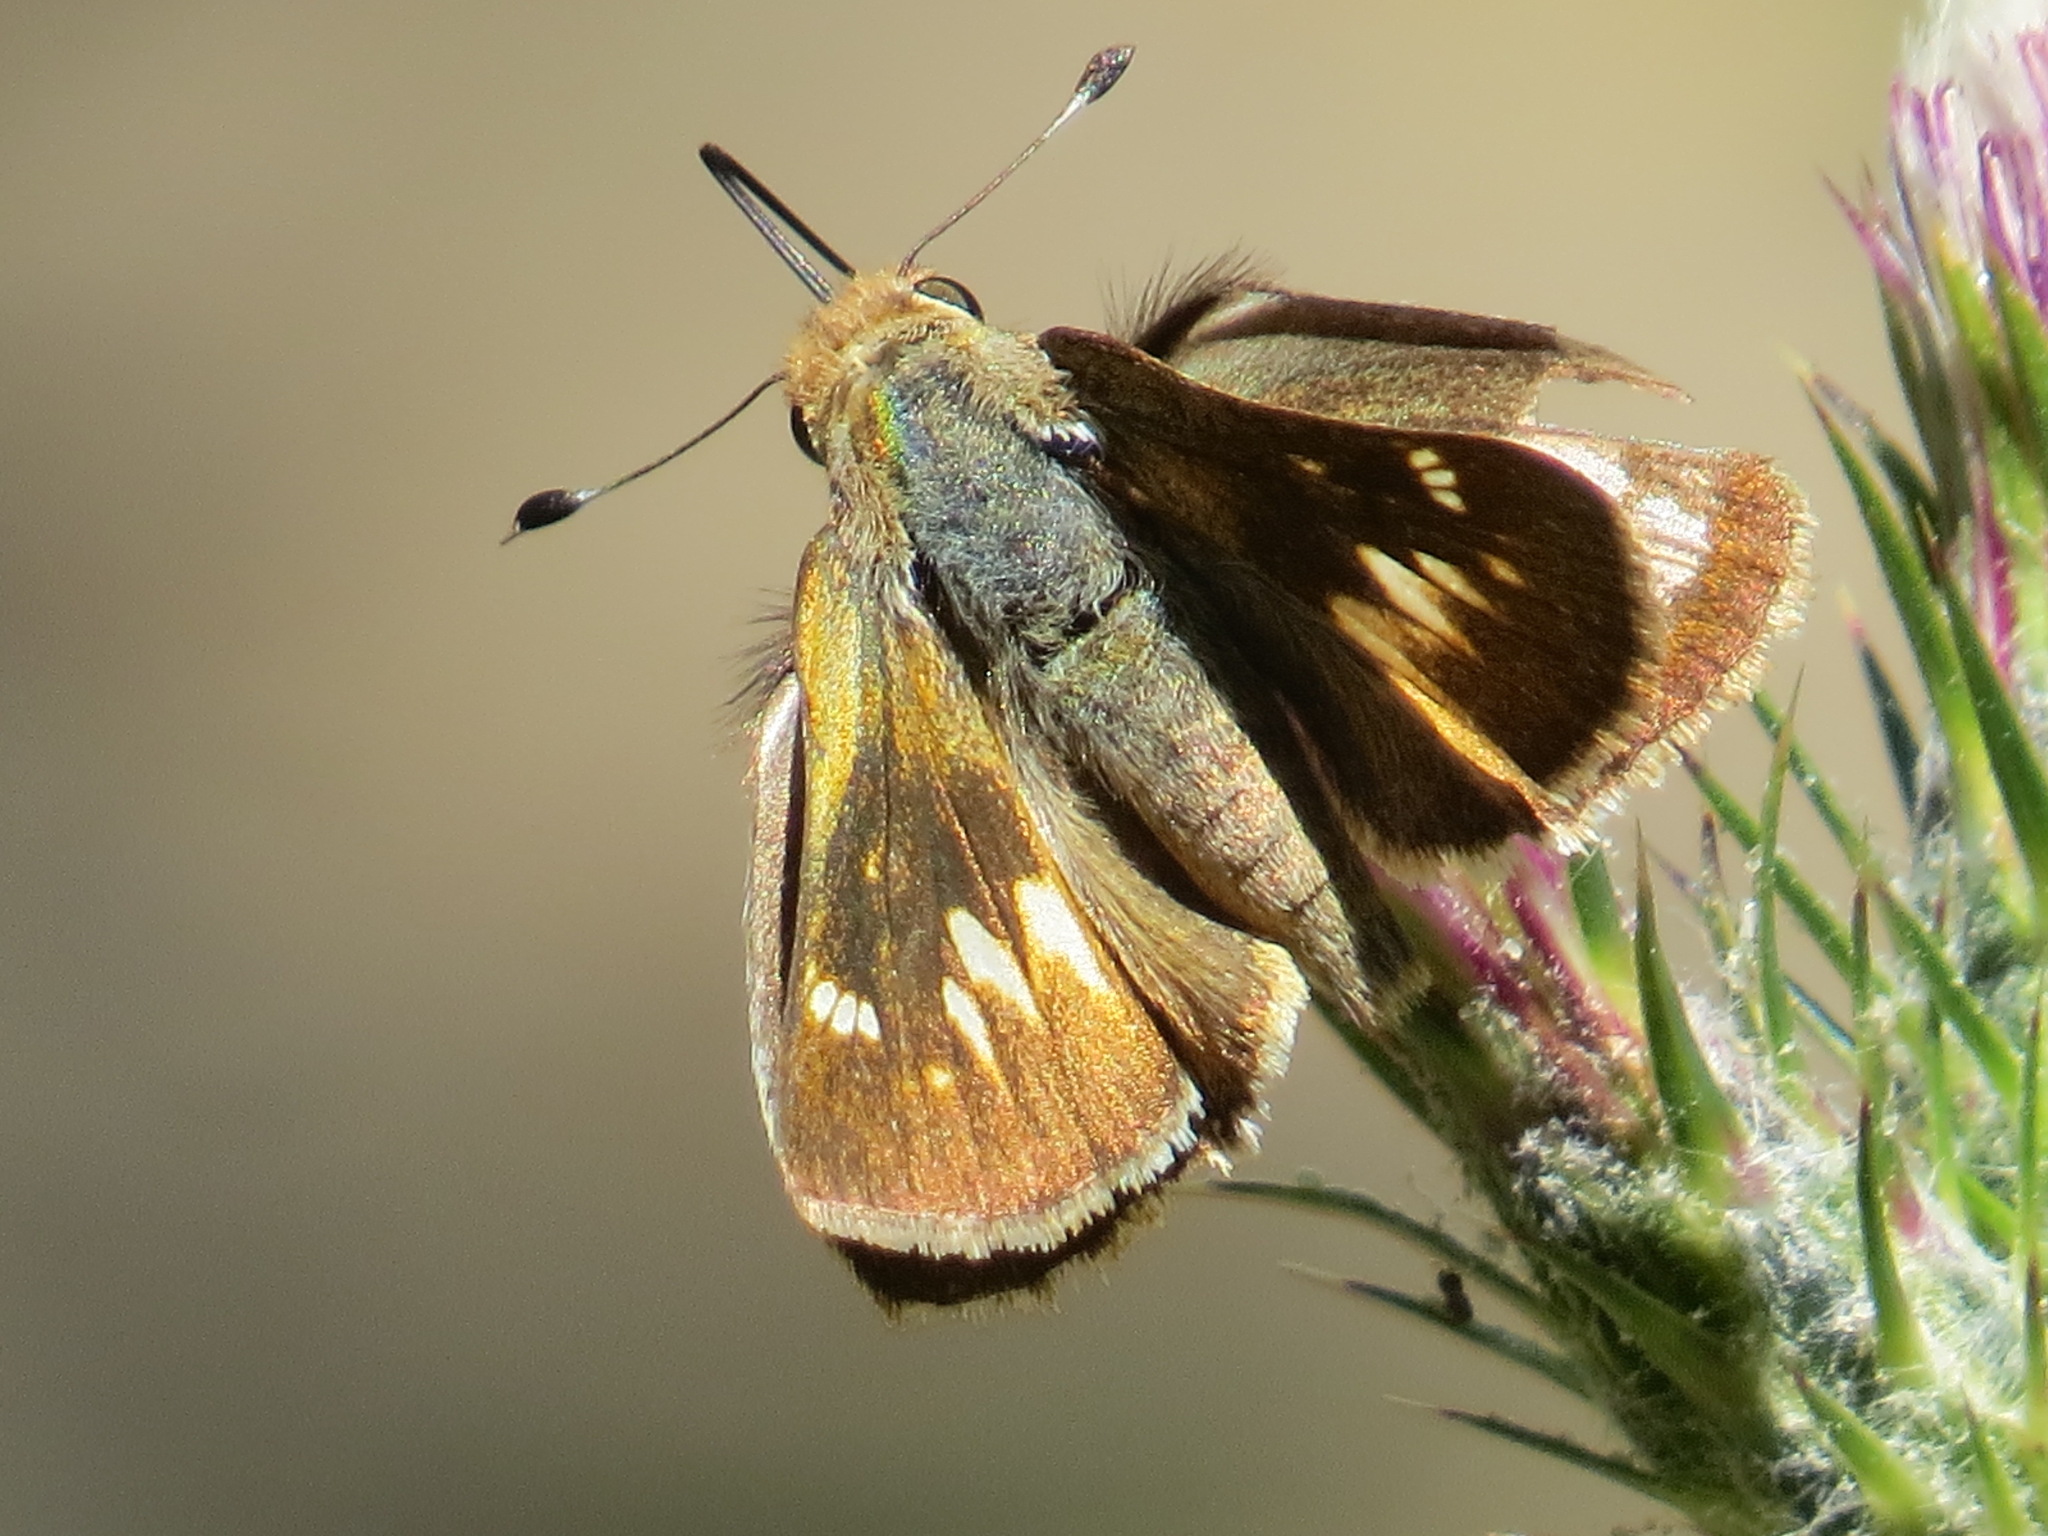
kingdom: Animalia
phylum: Arthropoda
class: Insecta
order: Lepidoptera
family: Hesperiidae
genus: Lon
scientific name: Lon melane
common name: Umber skipper
